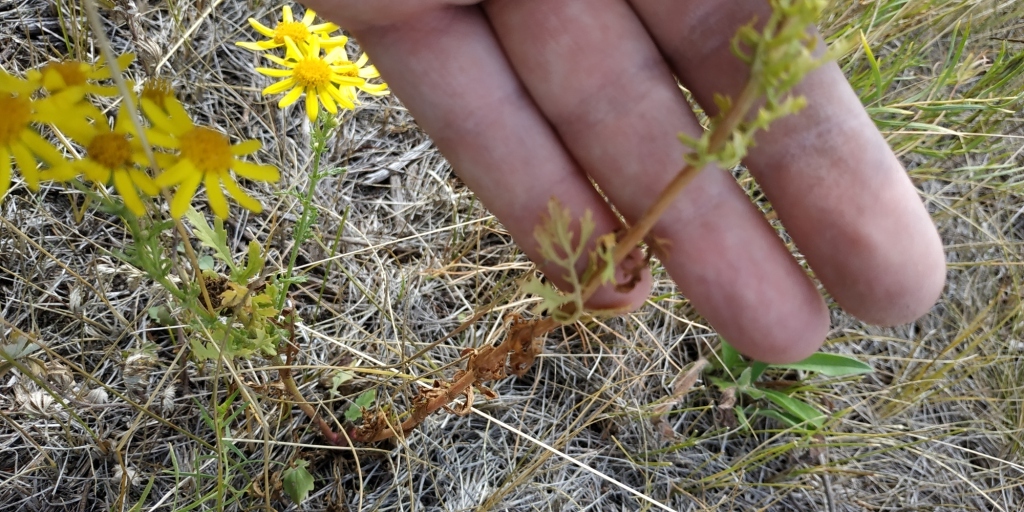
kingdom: Plantae
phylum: Tracheophyta
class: Magnoliopsida
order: Asterales
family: Asteraceae
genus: Jacobaea
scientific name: Jacobaea erucifolia
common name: Hoary ragwort
